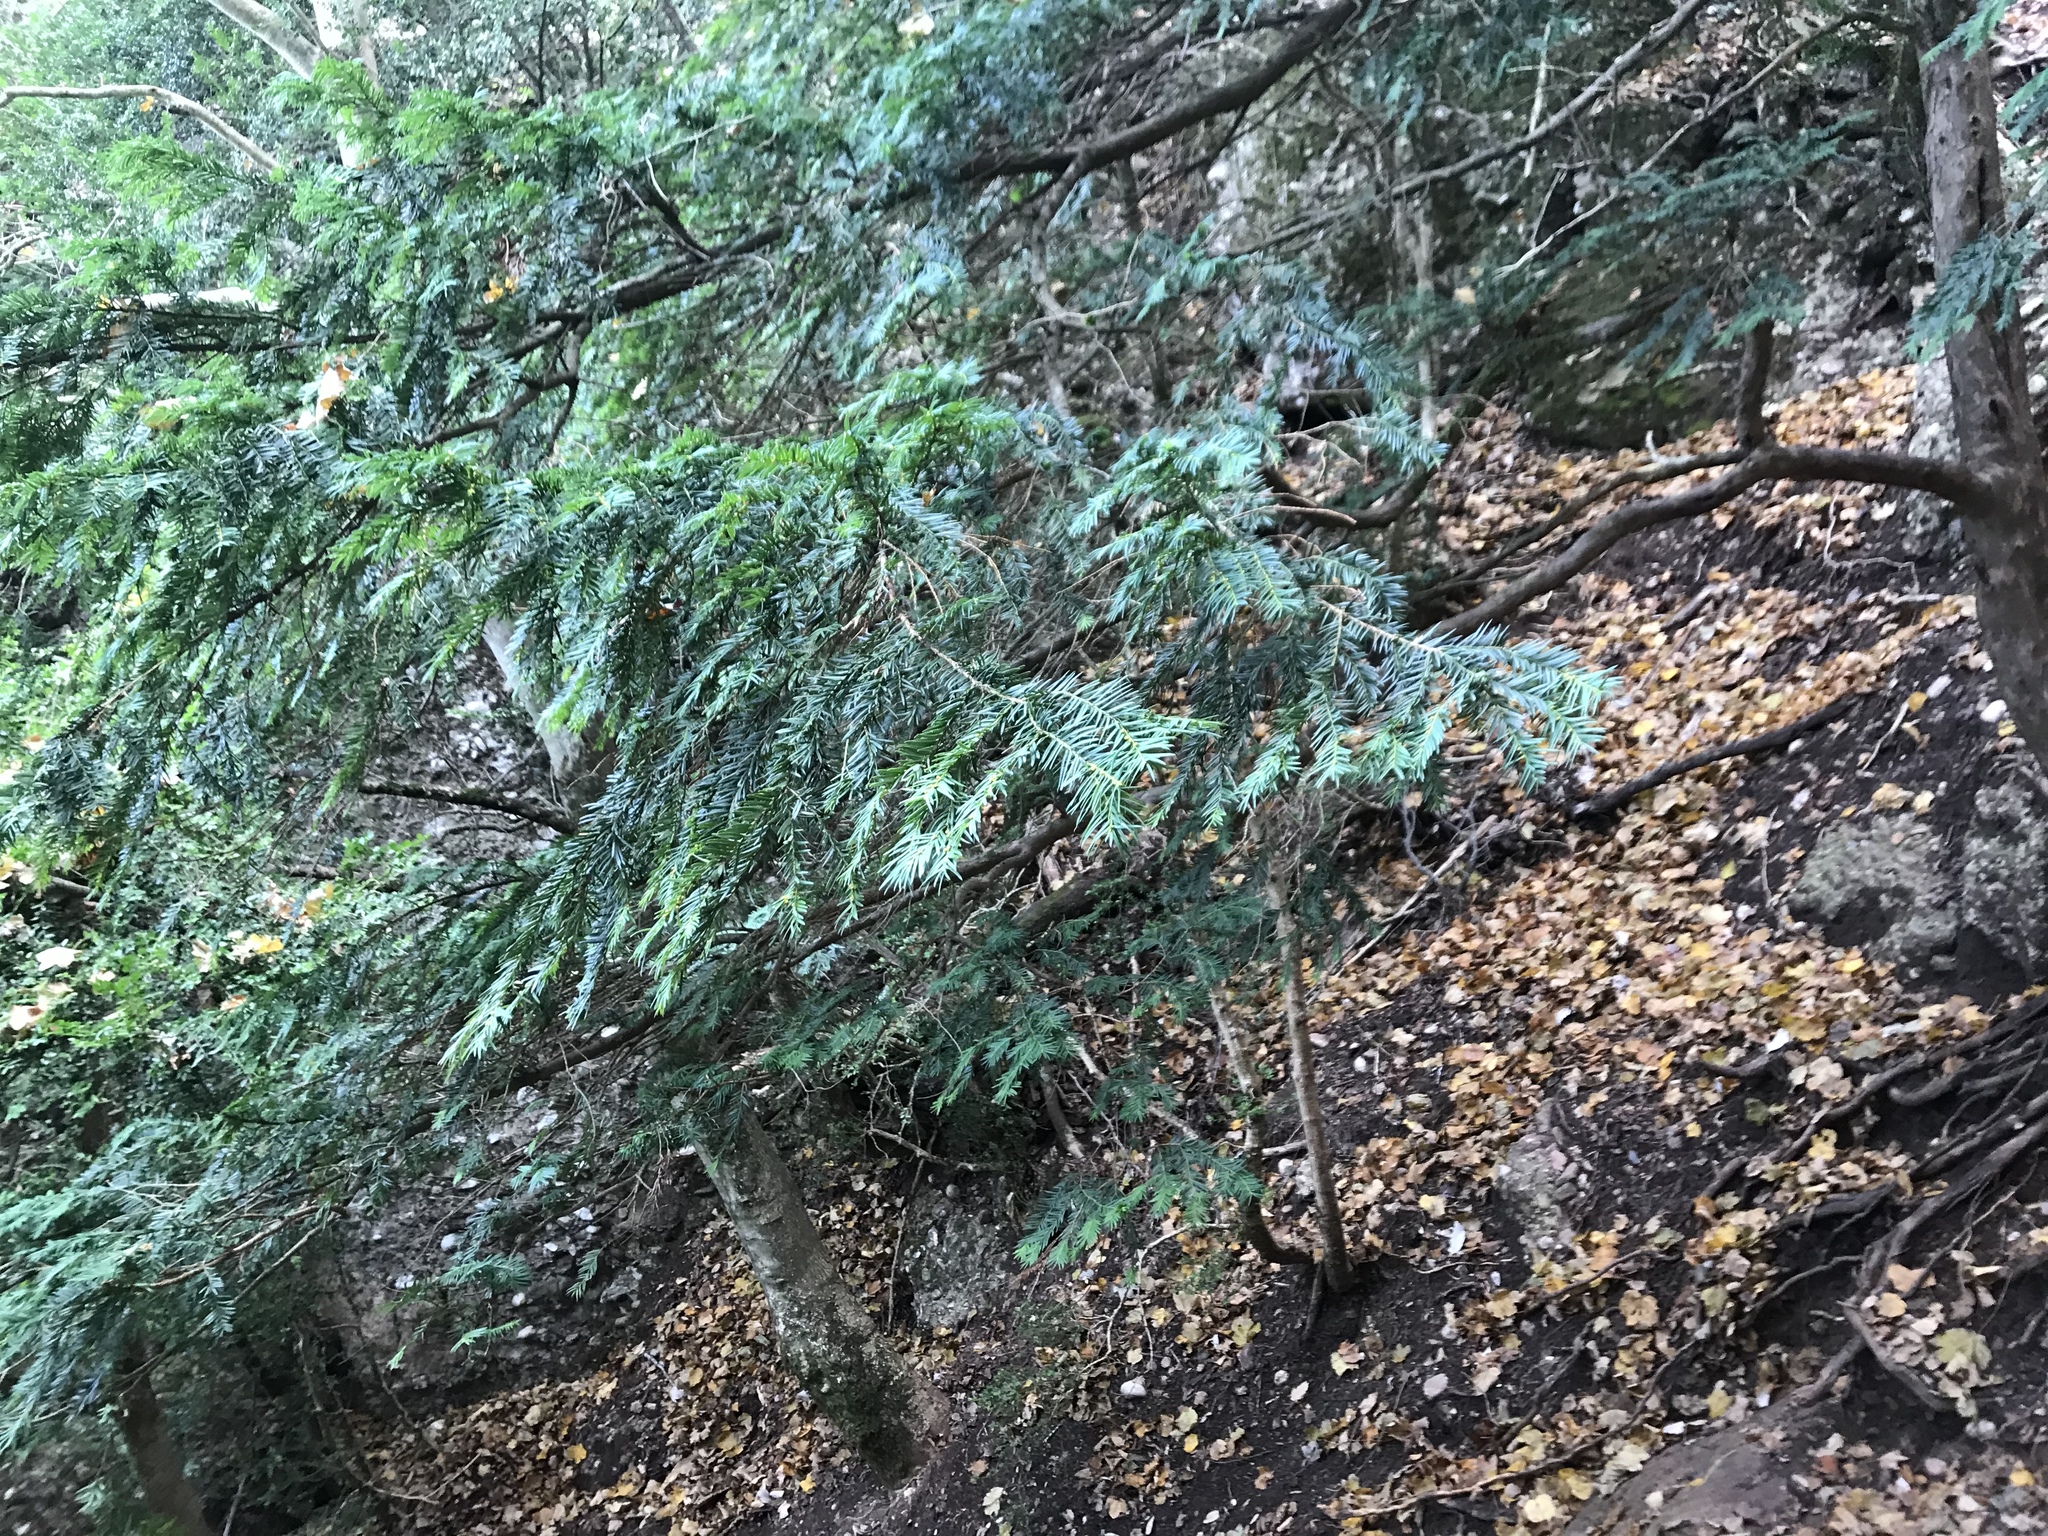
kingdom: Plantae
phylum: Tracheophyta
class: Pinopsida
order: Pinales
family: Taxaceae
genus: Taxus
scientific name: Taxus baccata
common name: Yew
